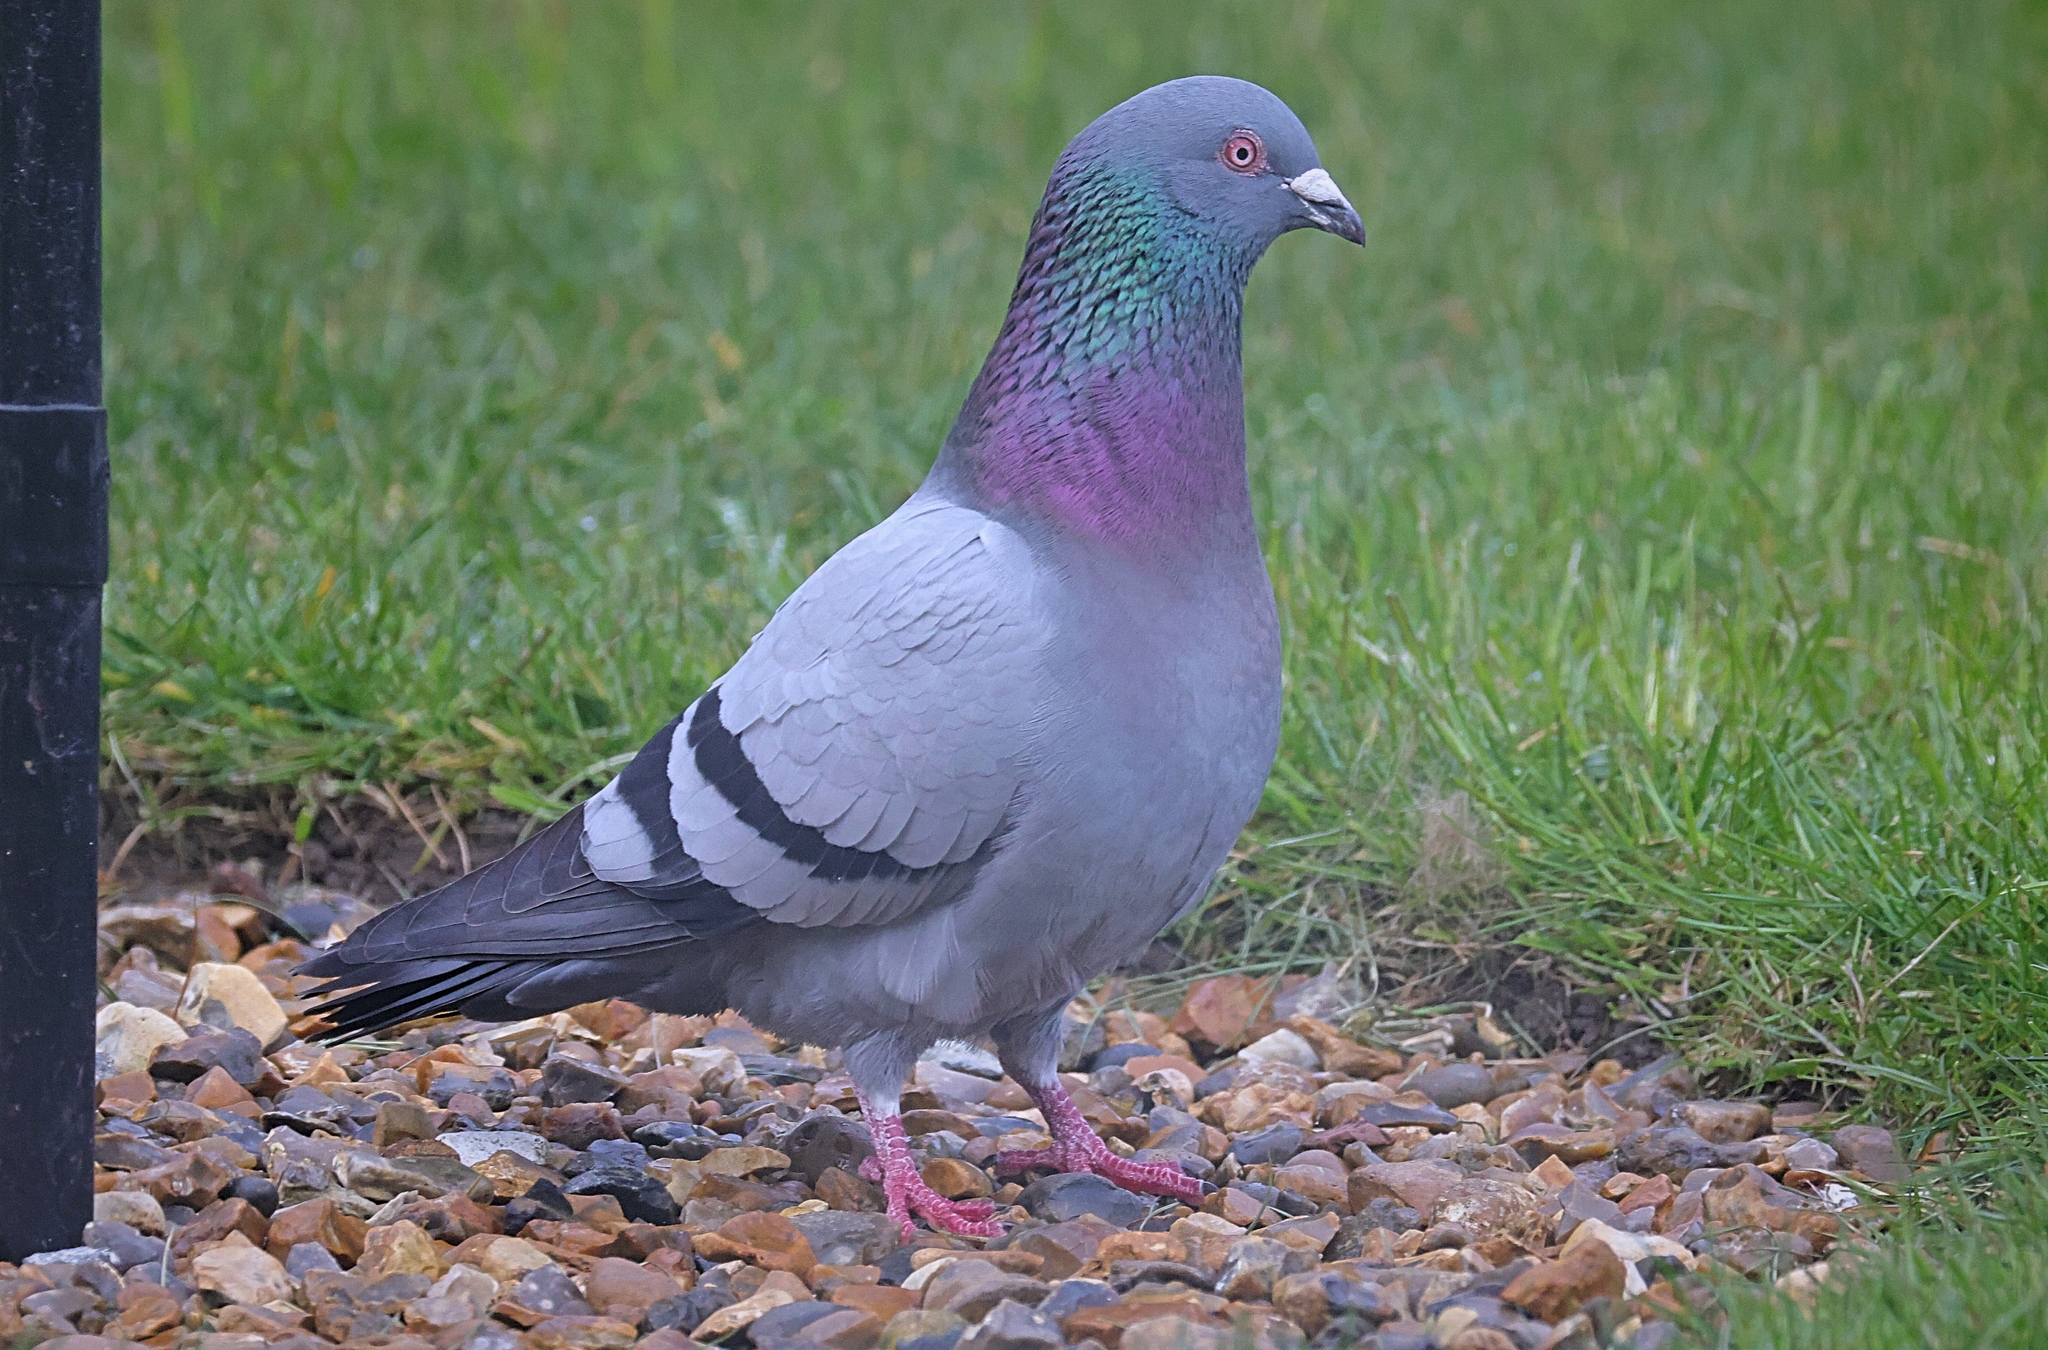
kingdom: Animalia
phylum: Chordata
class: Aves
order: Columbiformes
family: Columbidae
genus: Columba
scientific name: Columba livia
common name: Rock pigeon
